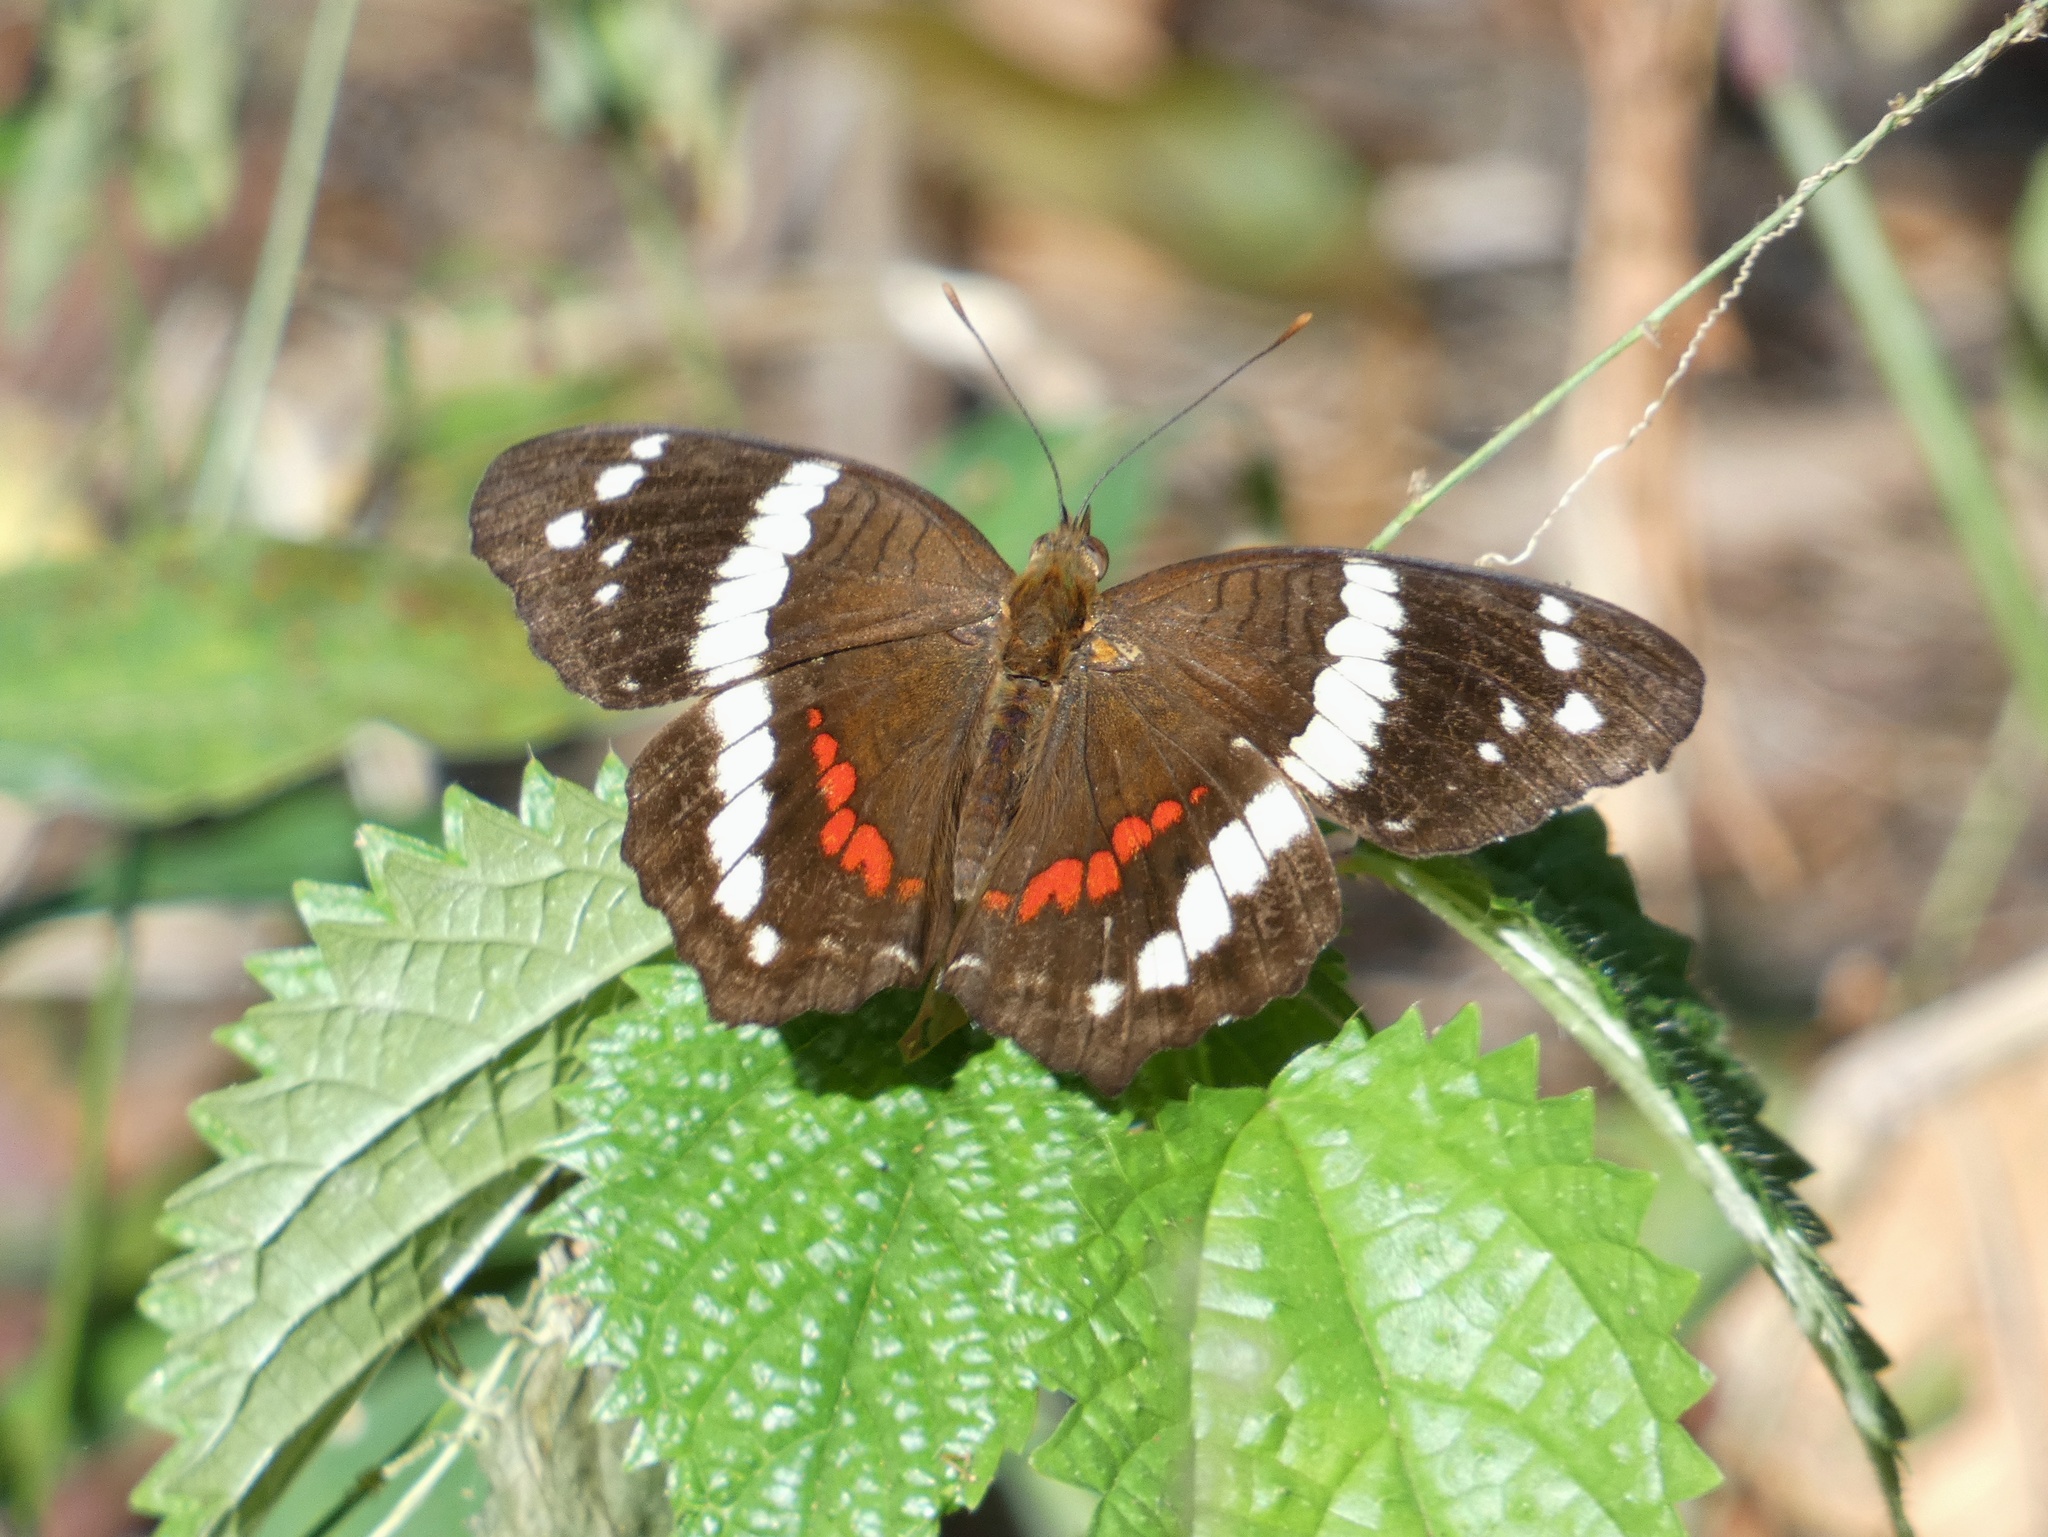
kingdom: Animalia
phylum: Arthropoda
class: Insecta
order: Lepidoptera
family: Nymphalidae
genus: Anartia
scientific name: Anartia fatima
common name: Banded peacock
